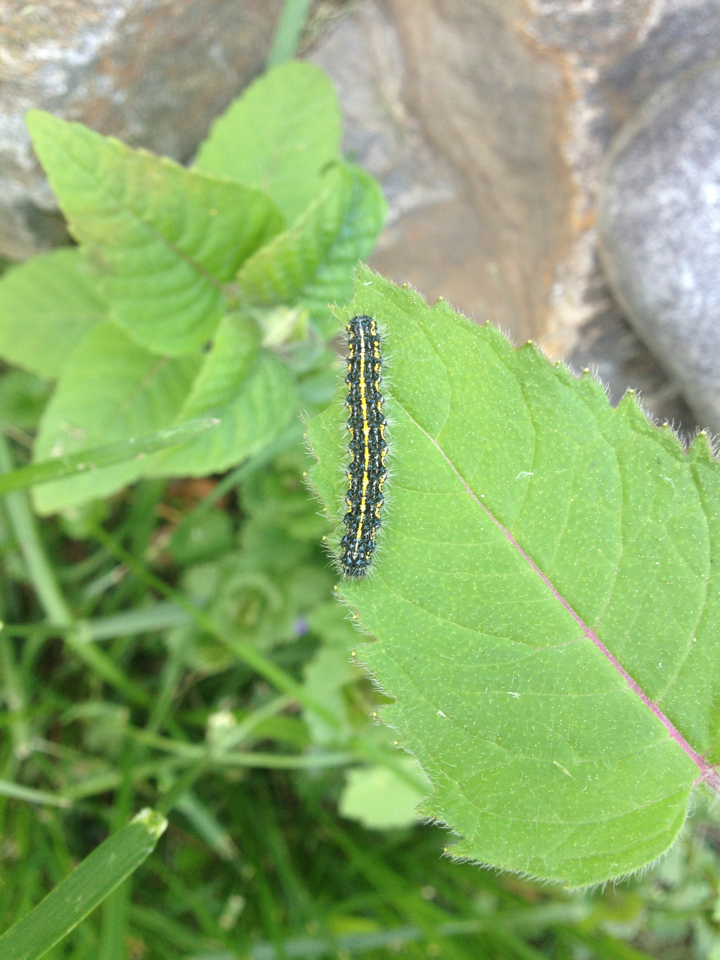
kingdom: Animalia
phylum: Arthropoda
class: Insecta
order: Lepidoptera
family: Erebidae
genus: Haploa
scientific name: Haploa confusa
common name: Confused haploa moth
